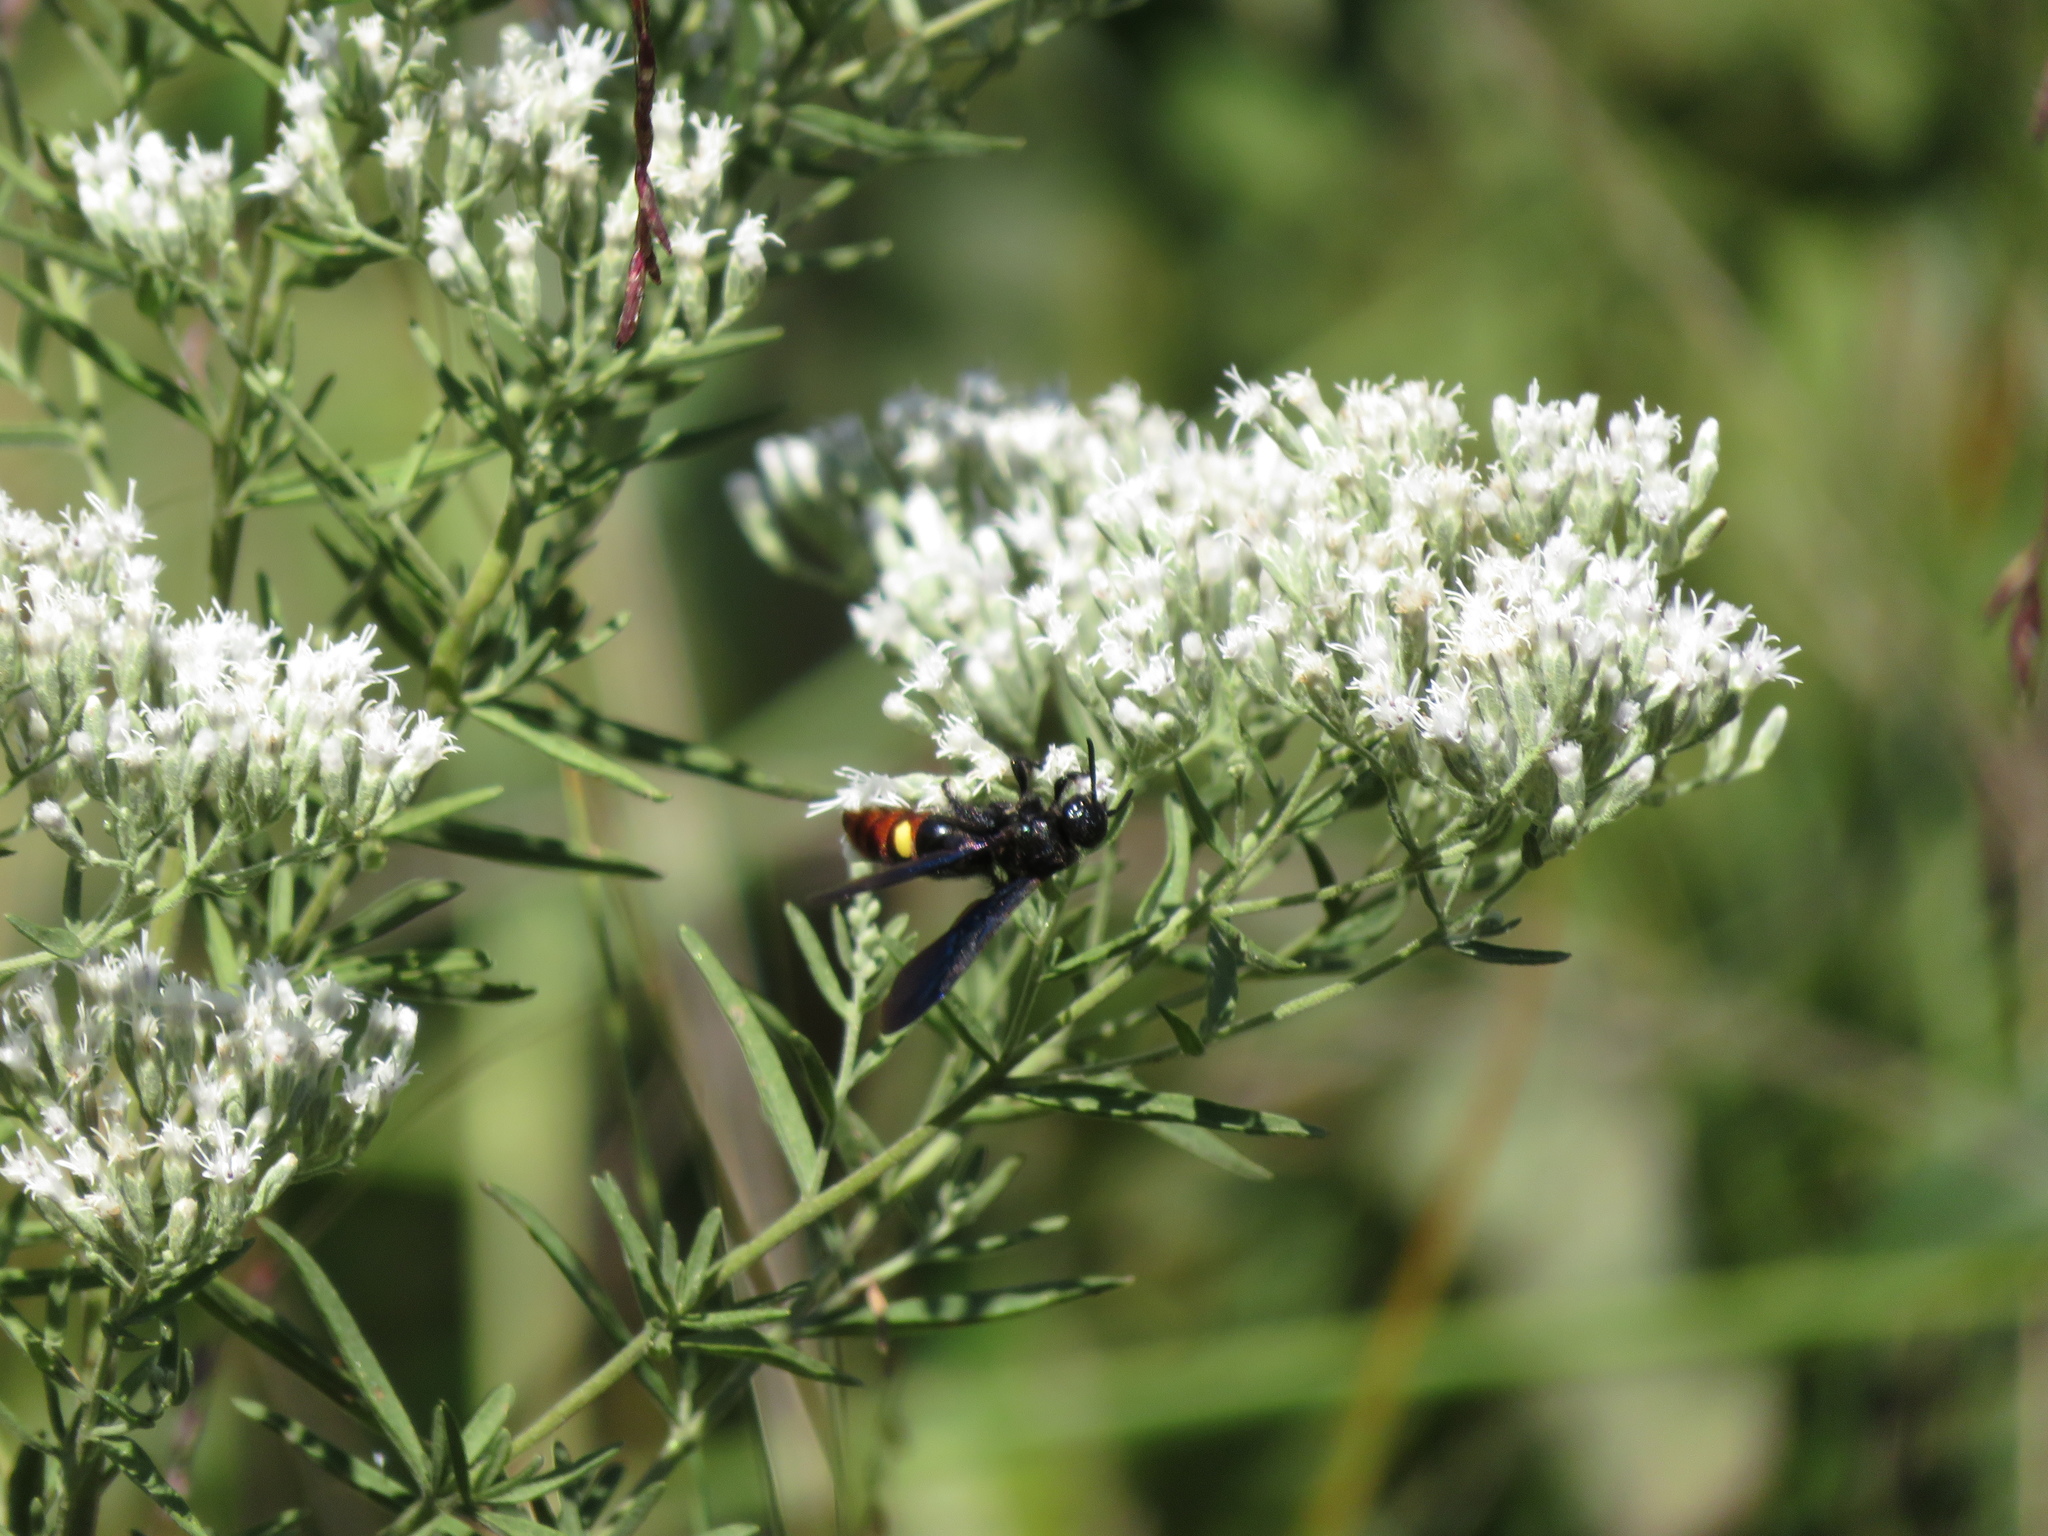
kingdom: Animalia
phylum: Arthropoda
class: Insecta
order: Hymenoptera
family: Scoliidae
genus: Scolia
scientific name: Scolia dubia
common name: Blue-winged scoliid wasp
